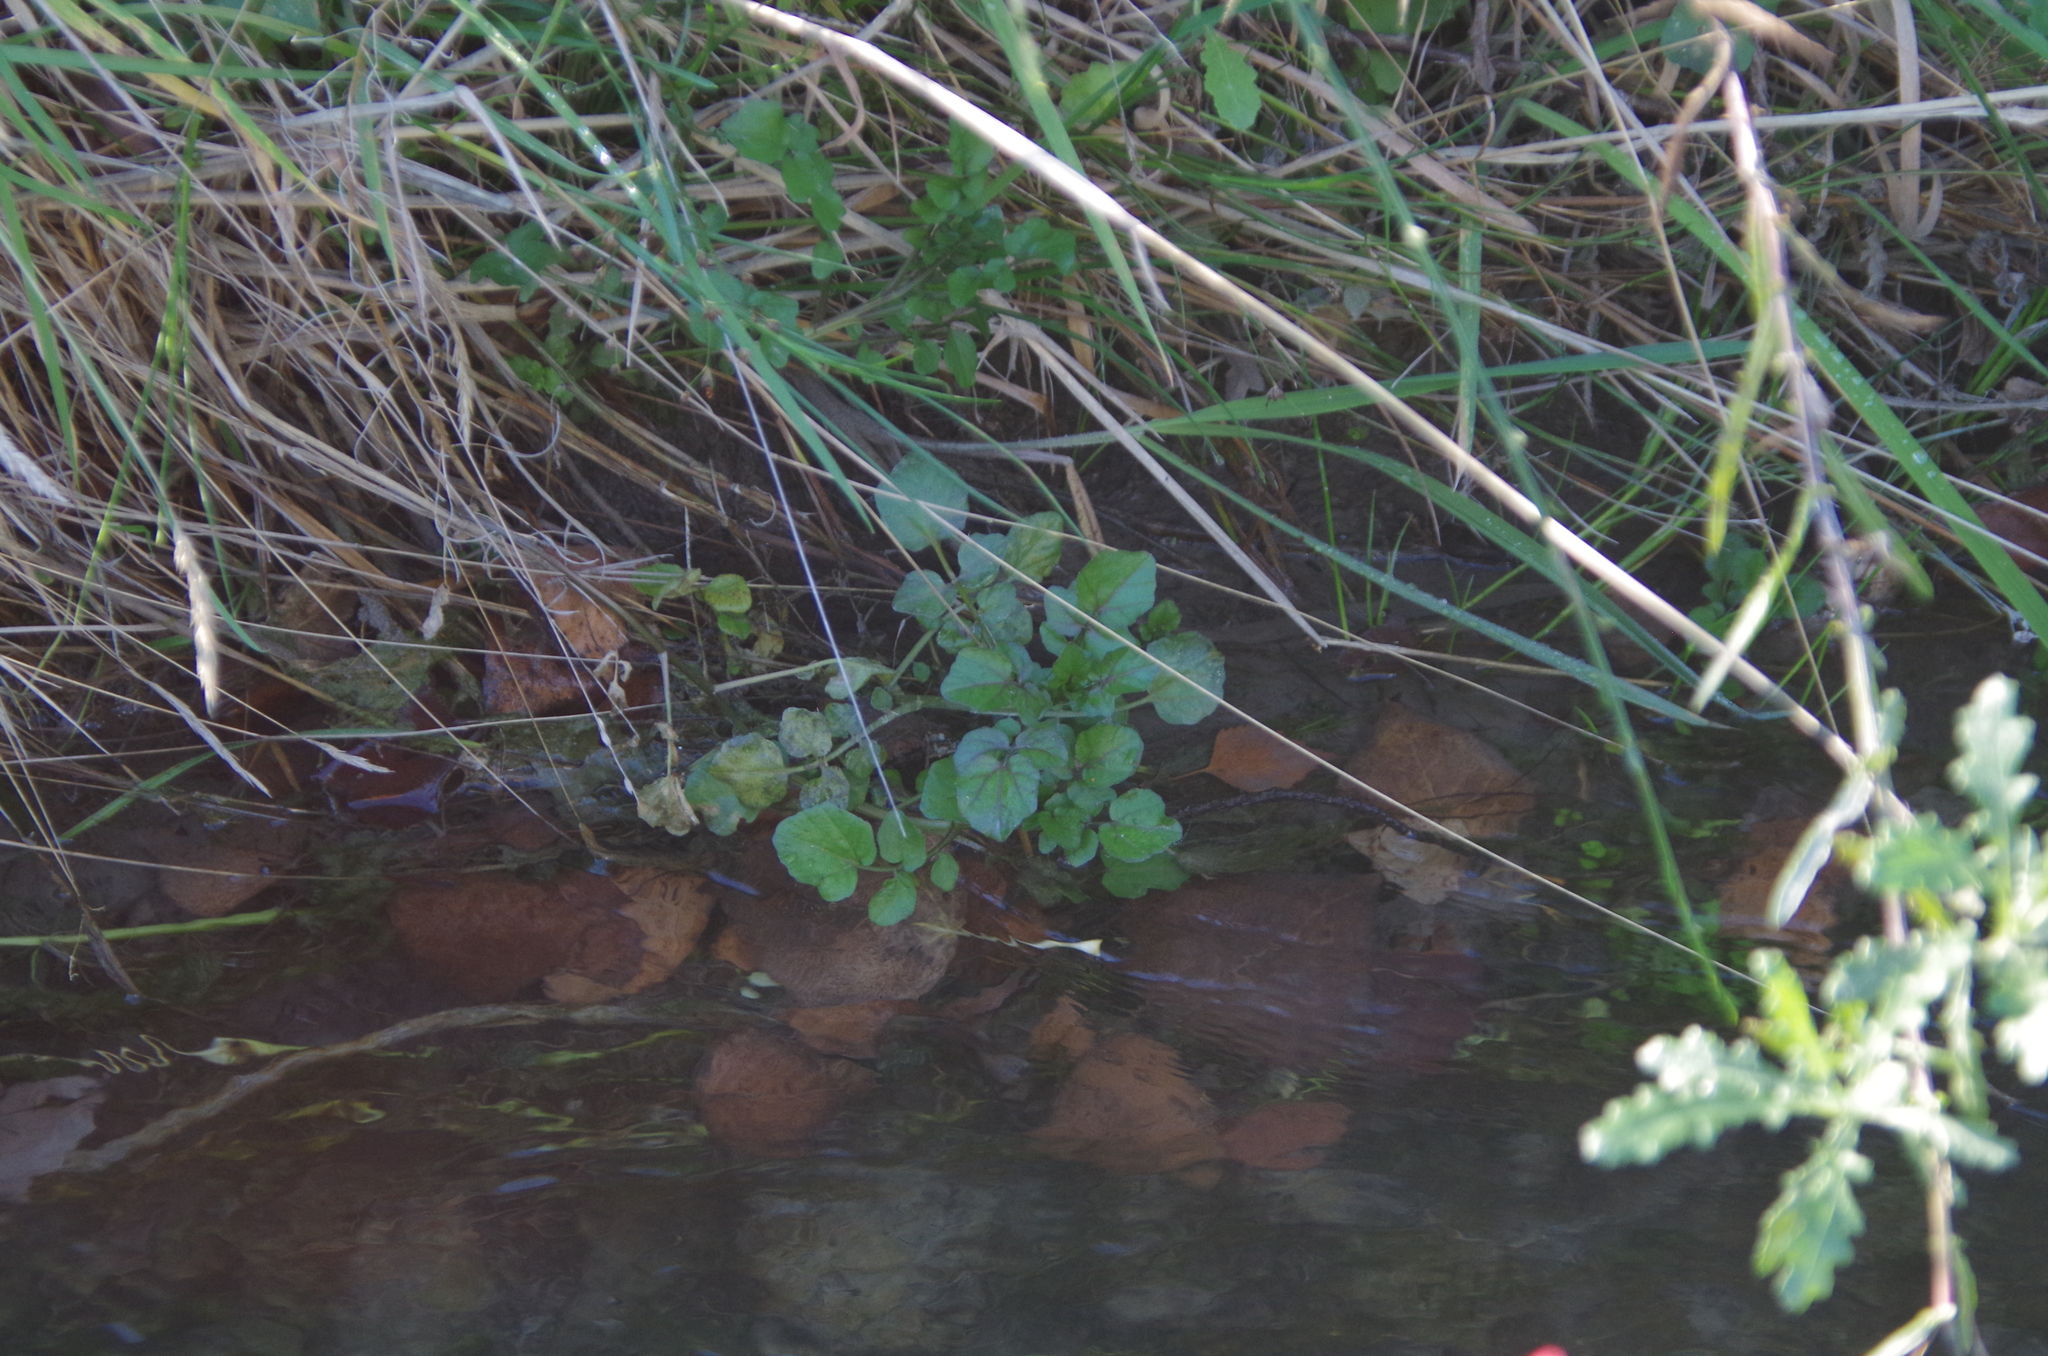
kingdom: Plantae
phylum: Tracheophyta
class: Magnoliopsida
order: Brassicales
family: Brassicaceae
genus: Nasturtium
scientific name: Nasturtium officinale
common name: Watercress
